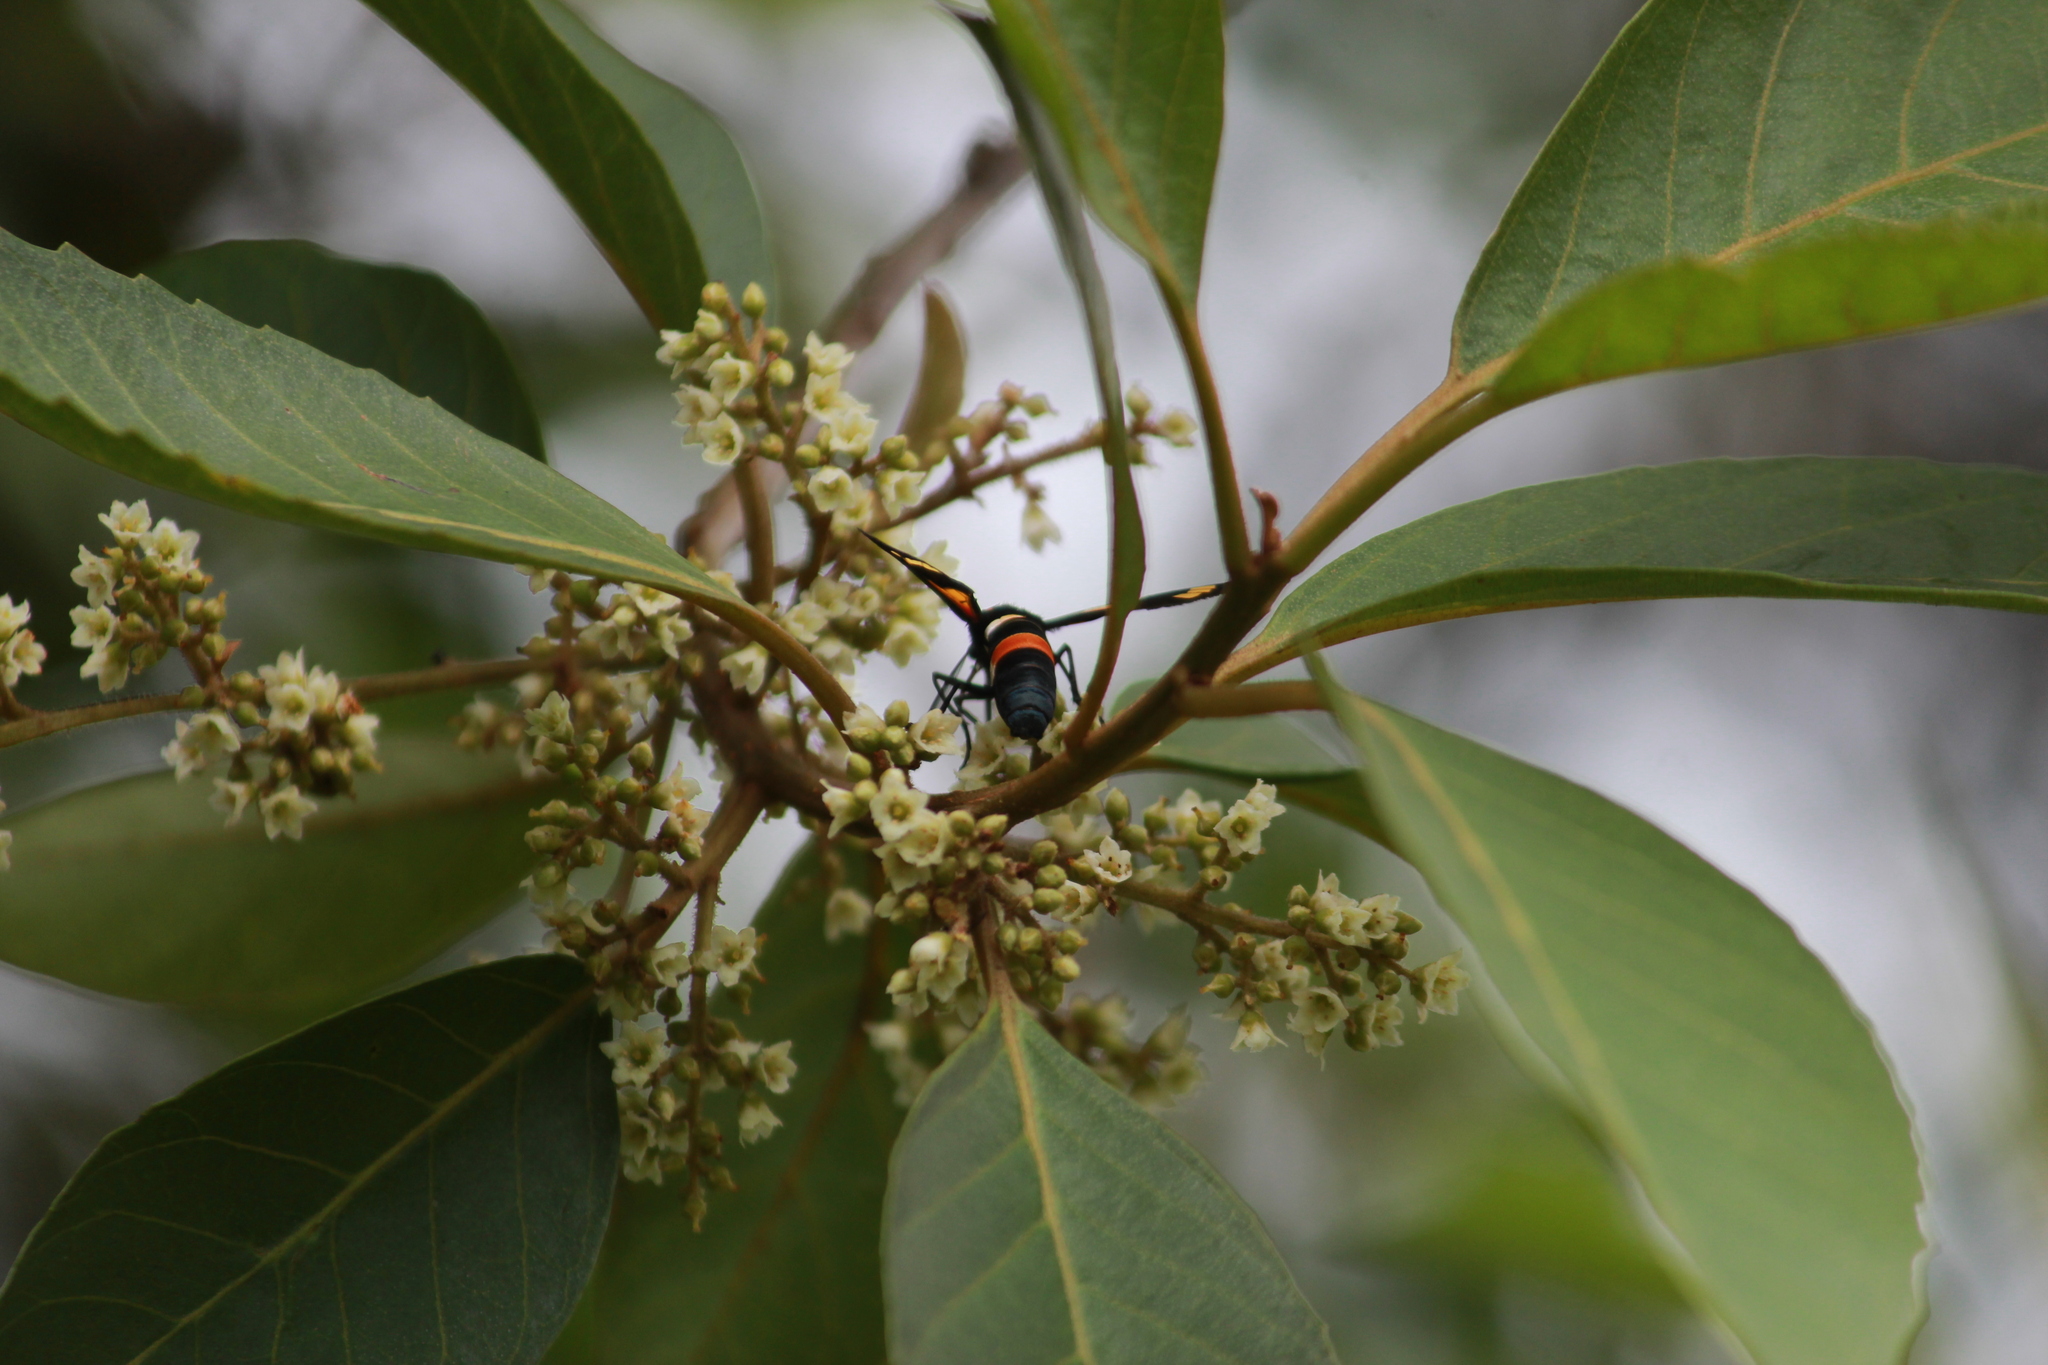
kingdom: Animalia
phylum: Arthropoda
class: Insecta
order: Lepidoptera
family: Erebidae
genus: Euchromia
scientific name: Euchromia amoena
